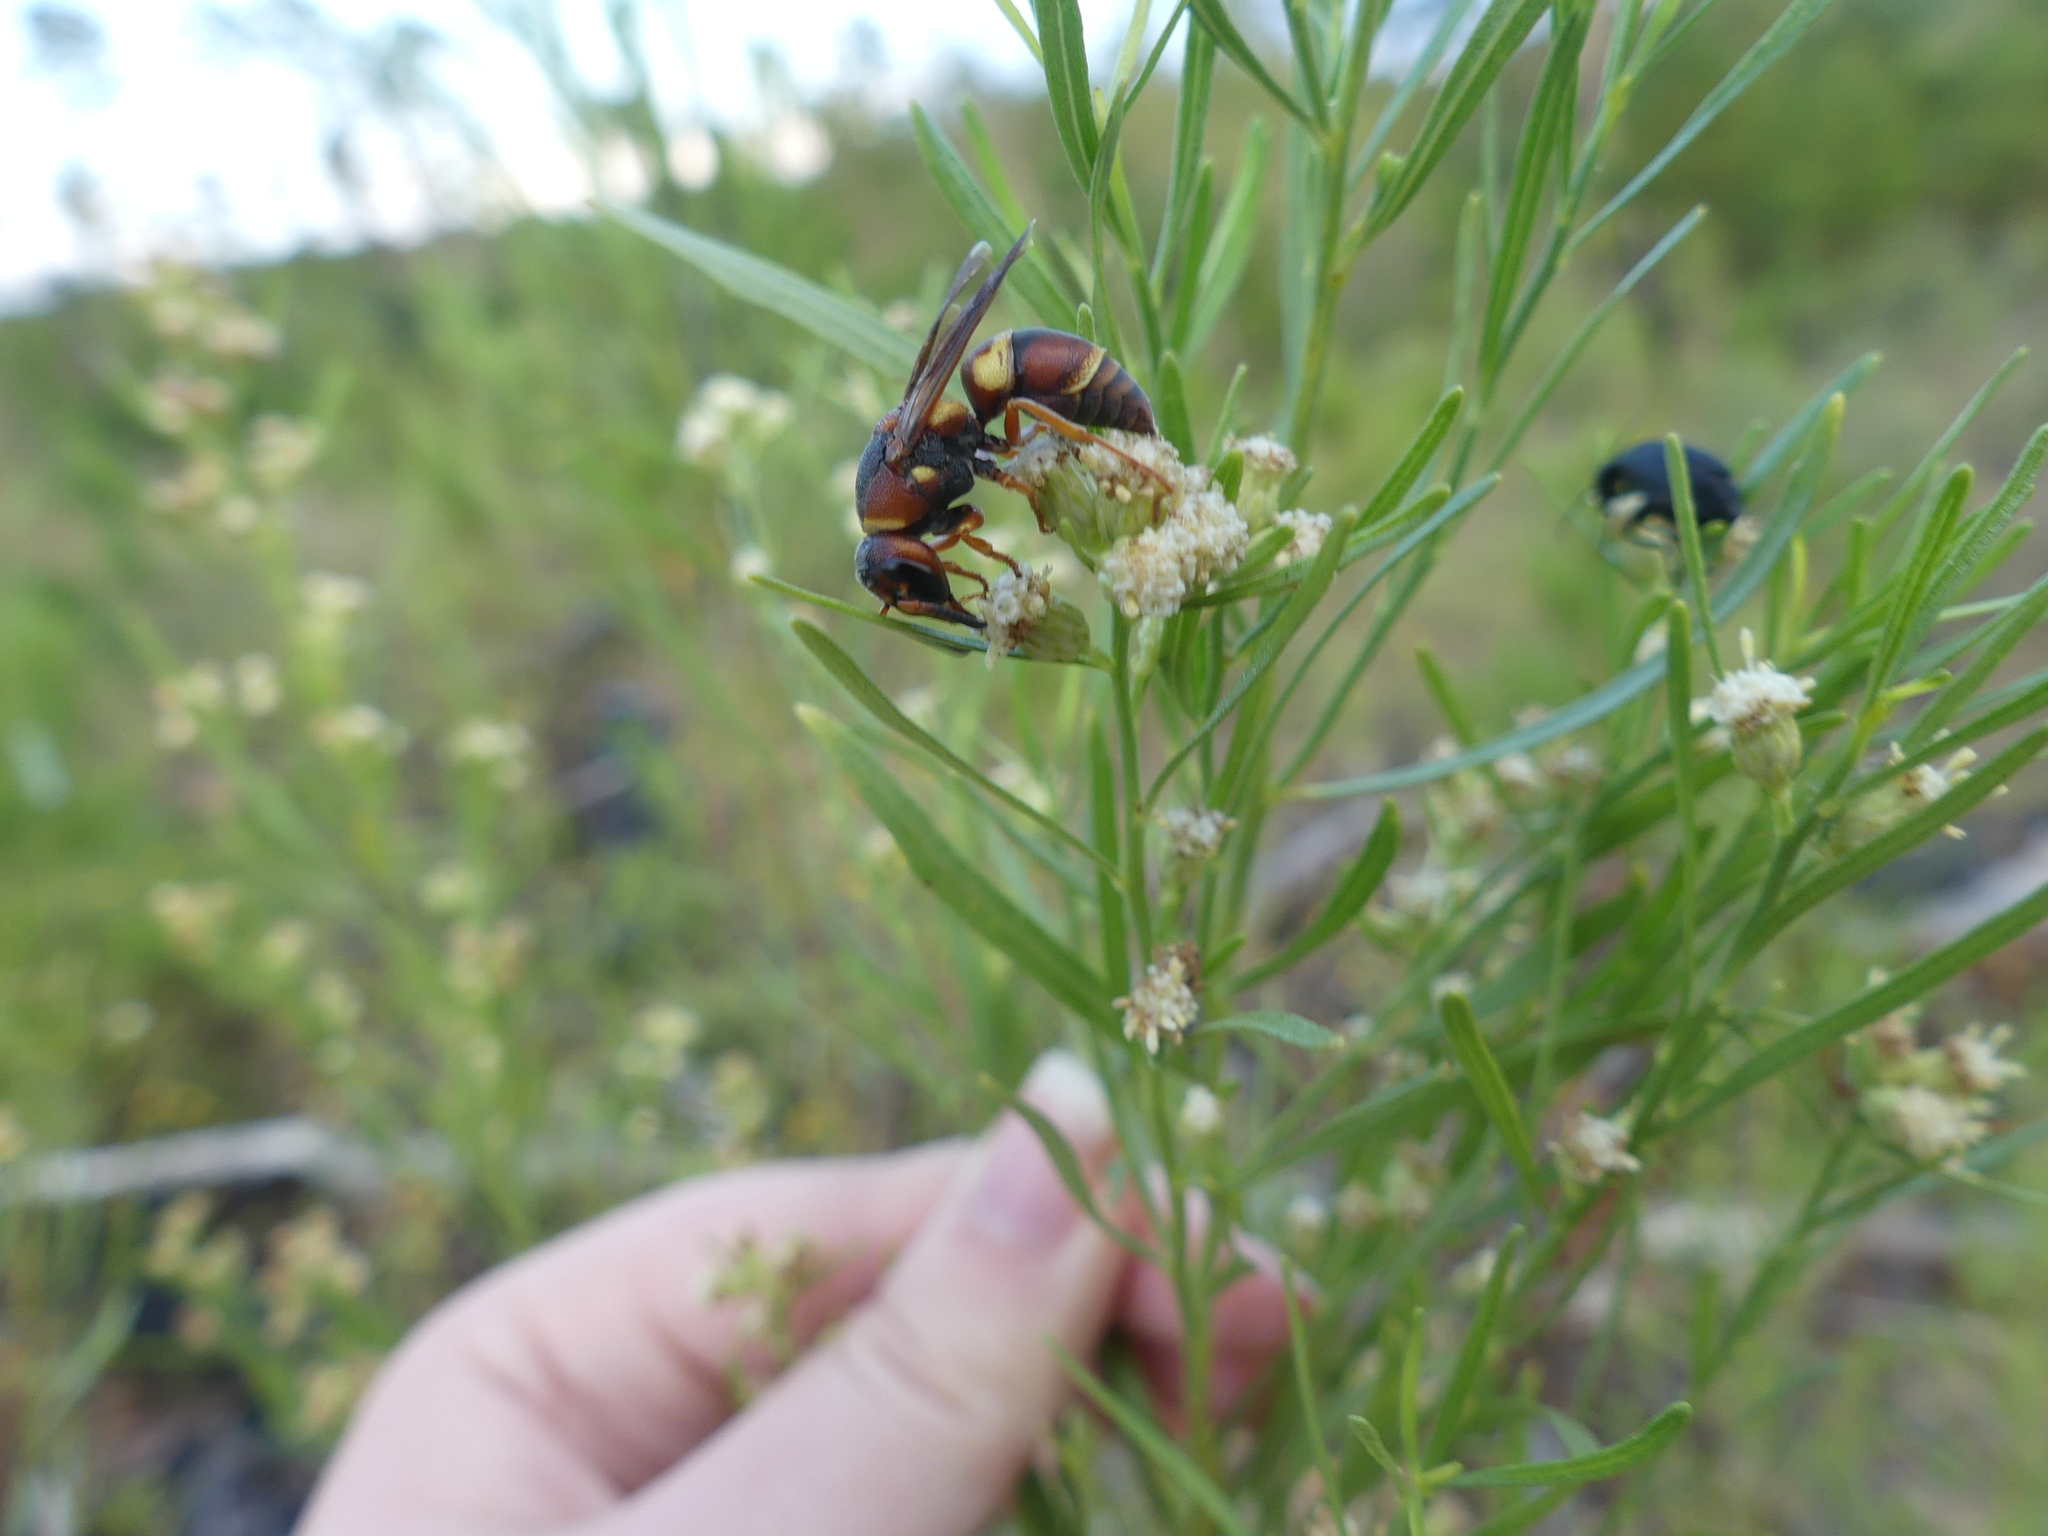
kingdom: Animalia
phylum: Arthropoda
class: Insecta
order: Hymenoptera
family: Eumenidae
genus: Euodynerus
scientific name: Euodynerus crypticus
